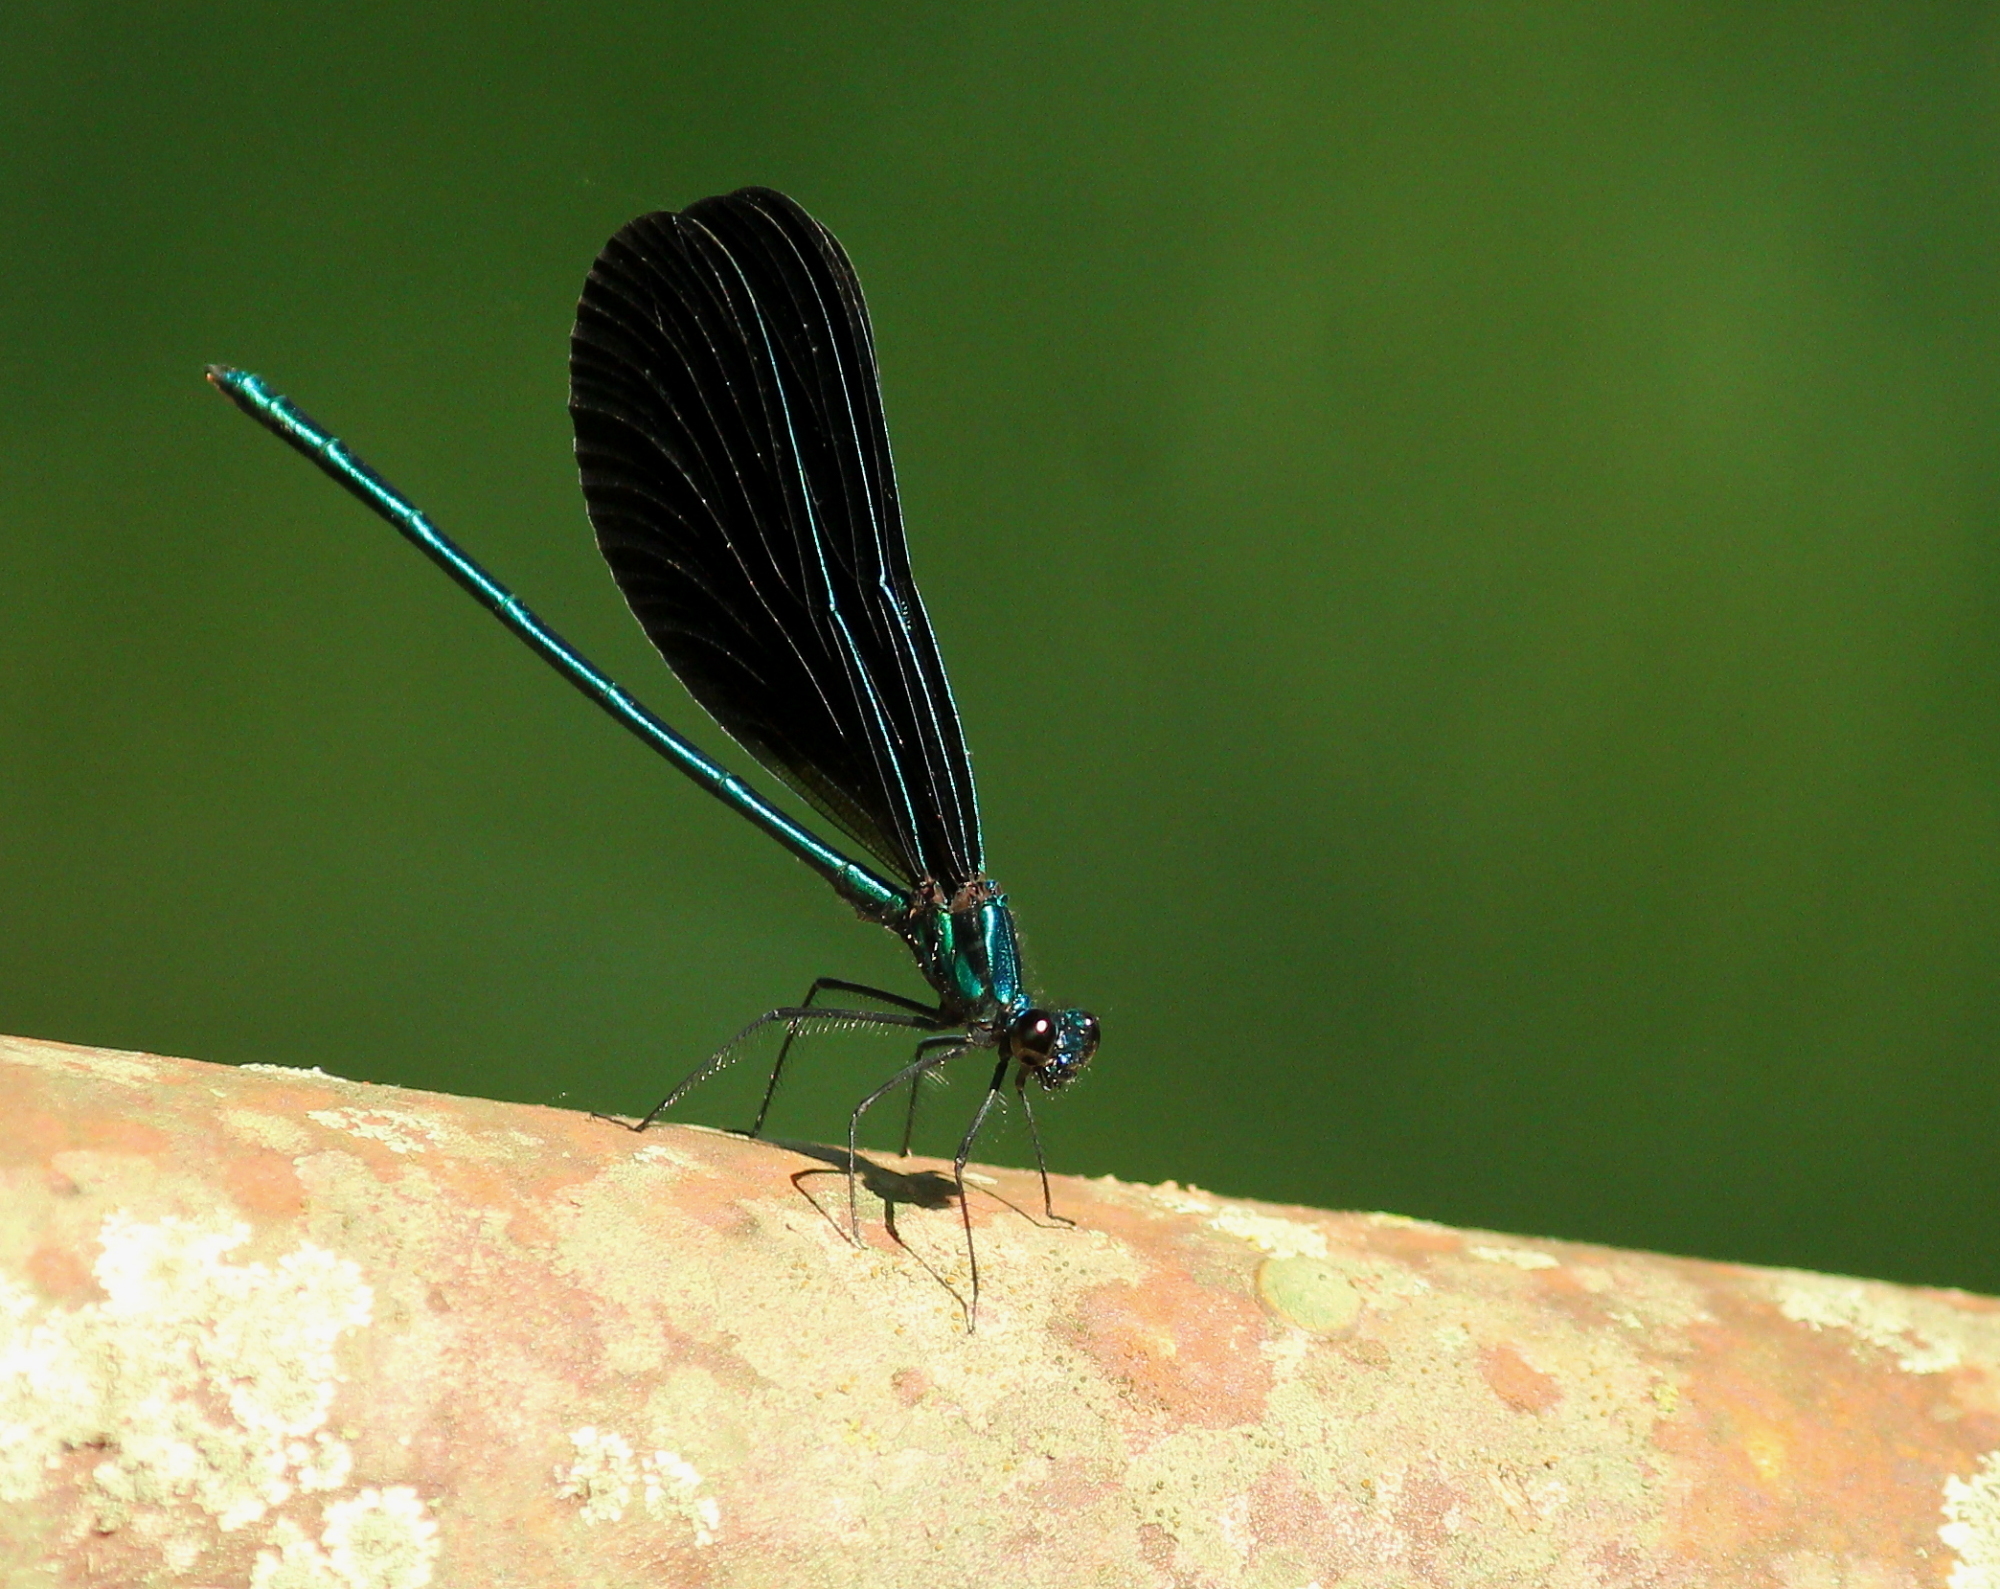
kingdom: Animalia
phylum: Arthropoda
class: Insecta
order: Odonata
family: Calopterygidae
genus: Calopteryx
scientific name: Calopteryx maculata
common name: Ebony jewelwing
